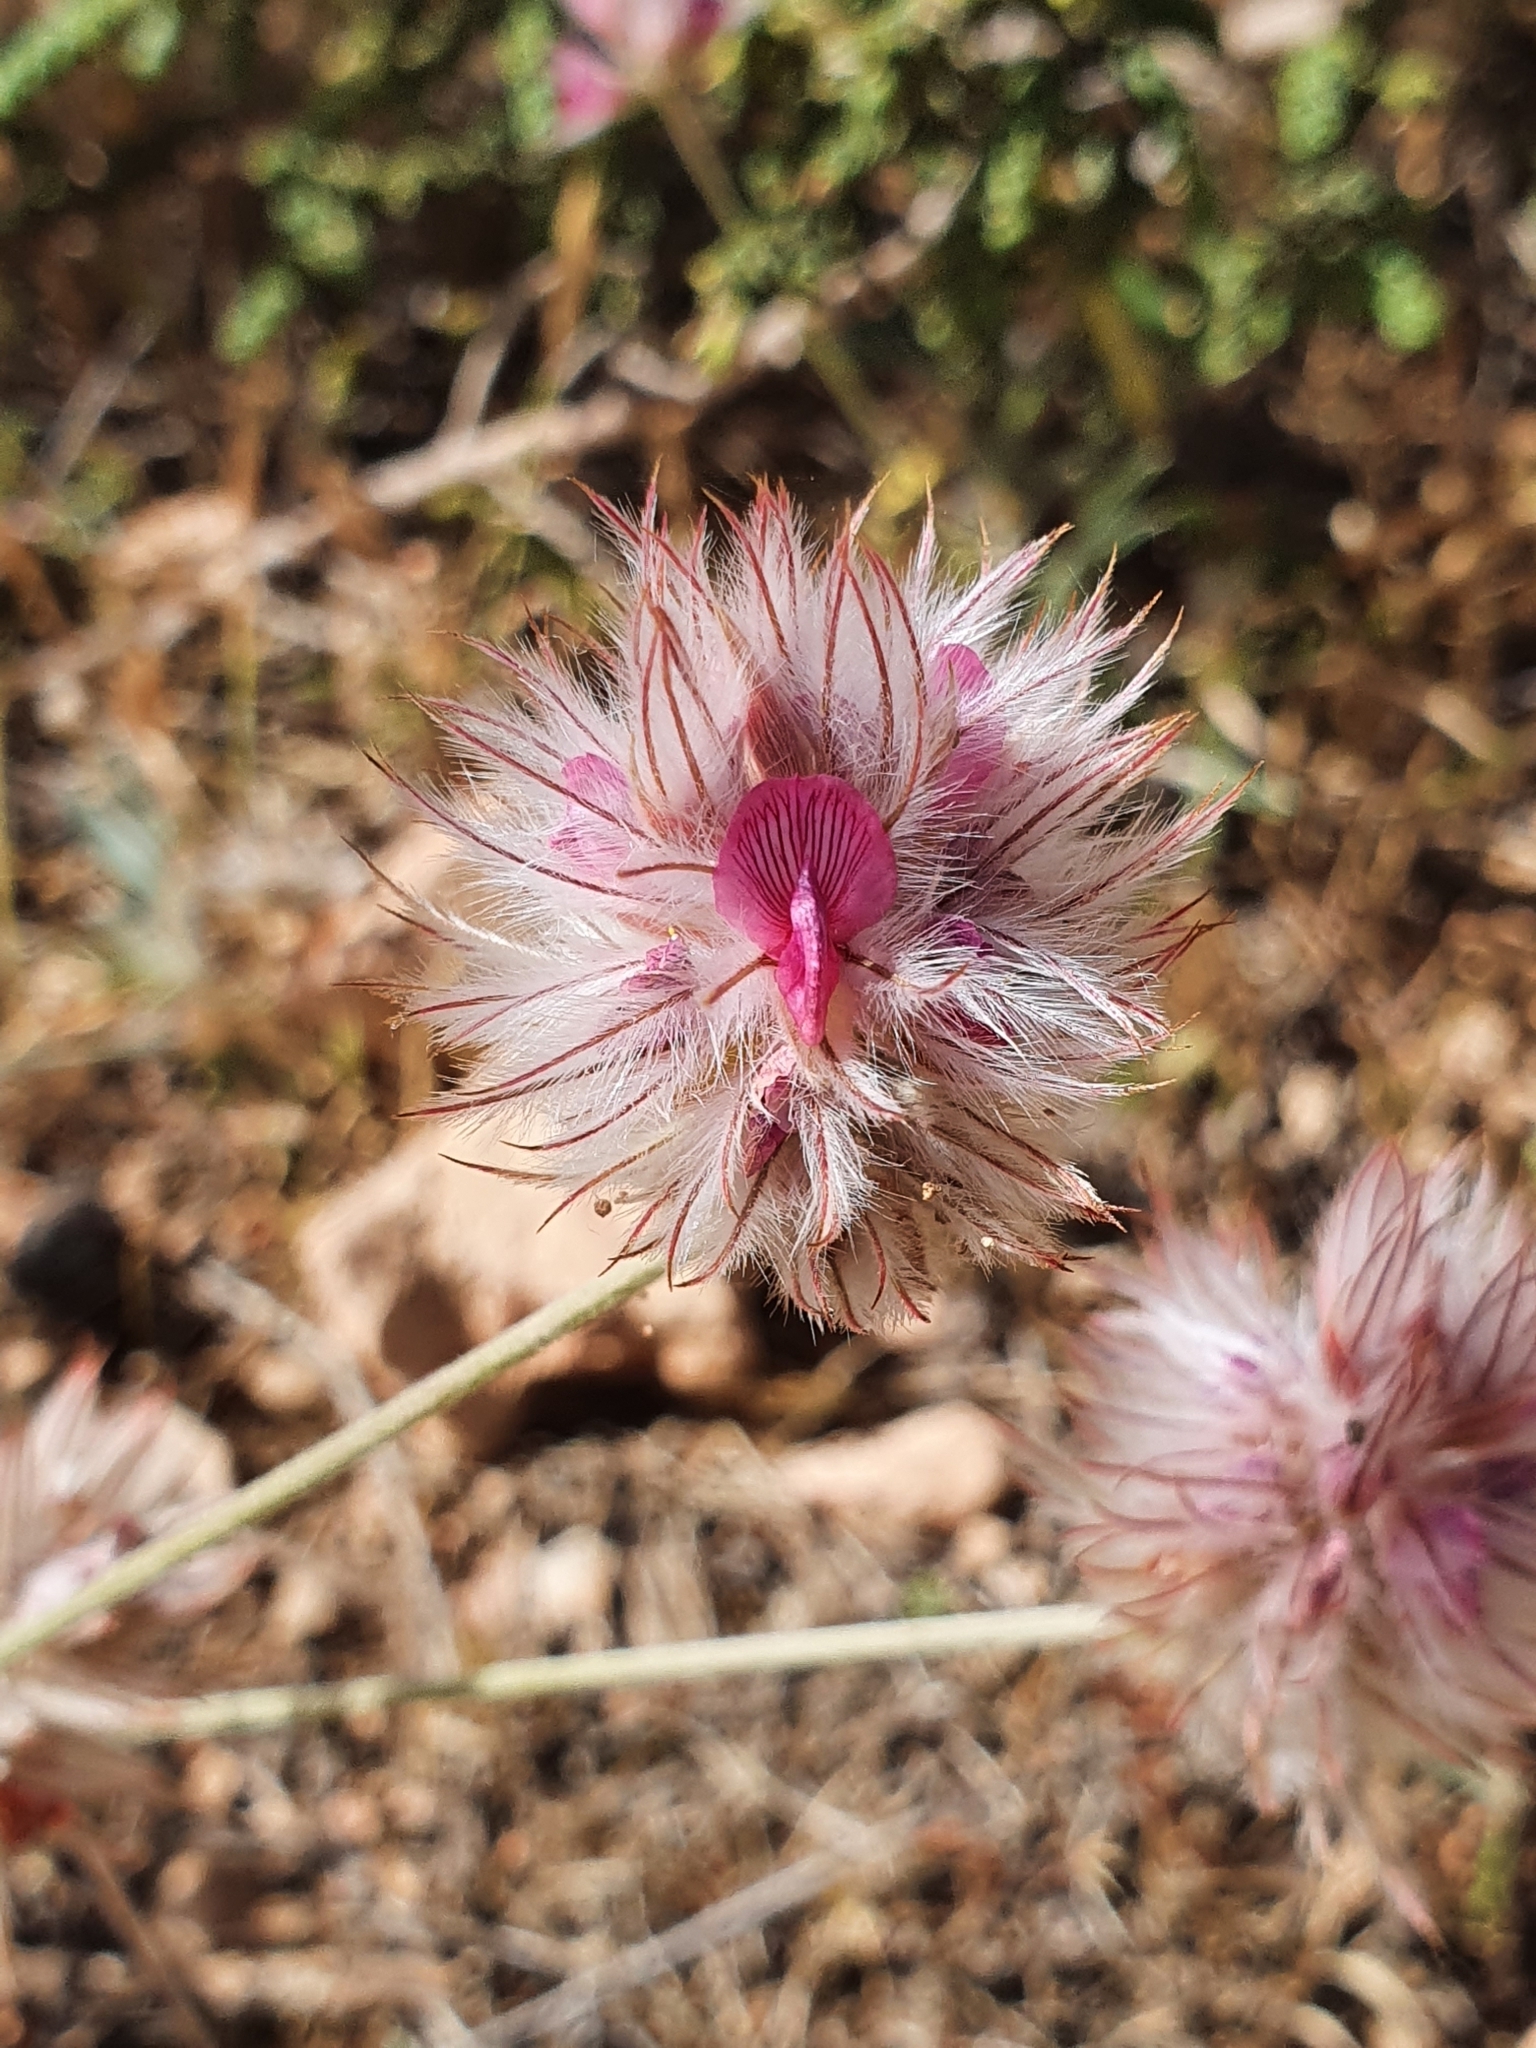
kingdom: Plantae
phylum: Tracheophyta
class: Magnoliopsida
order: Fabales
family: Fabaceae
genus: Ebenus
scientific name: Ebenus pinnata
